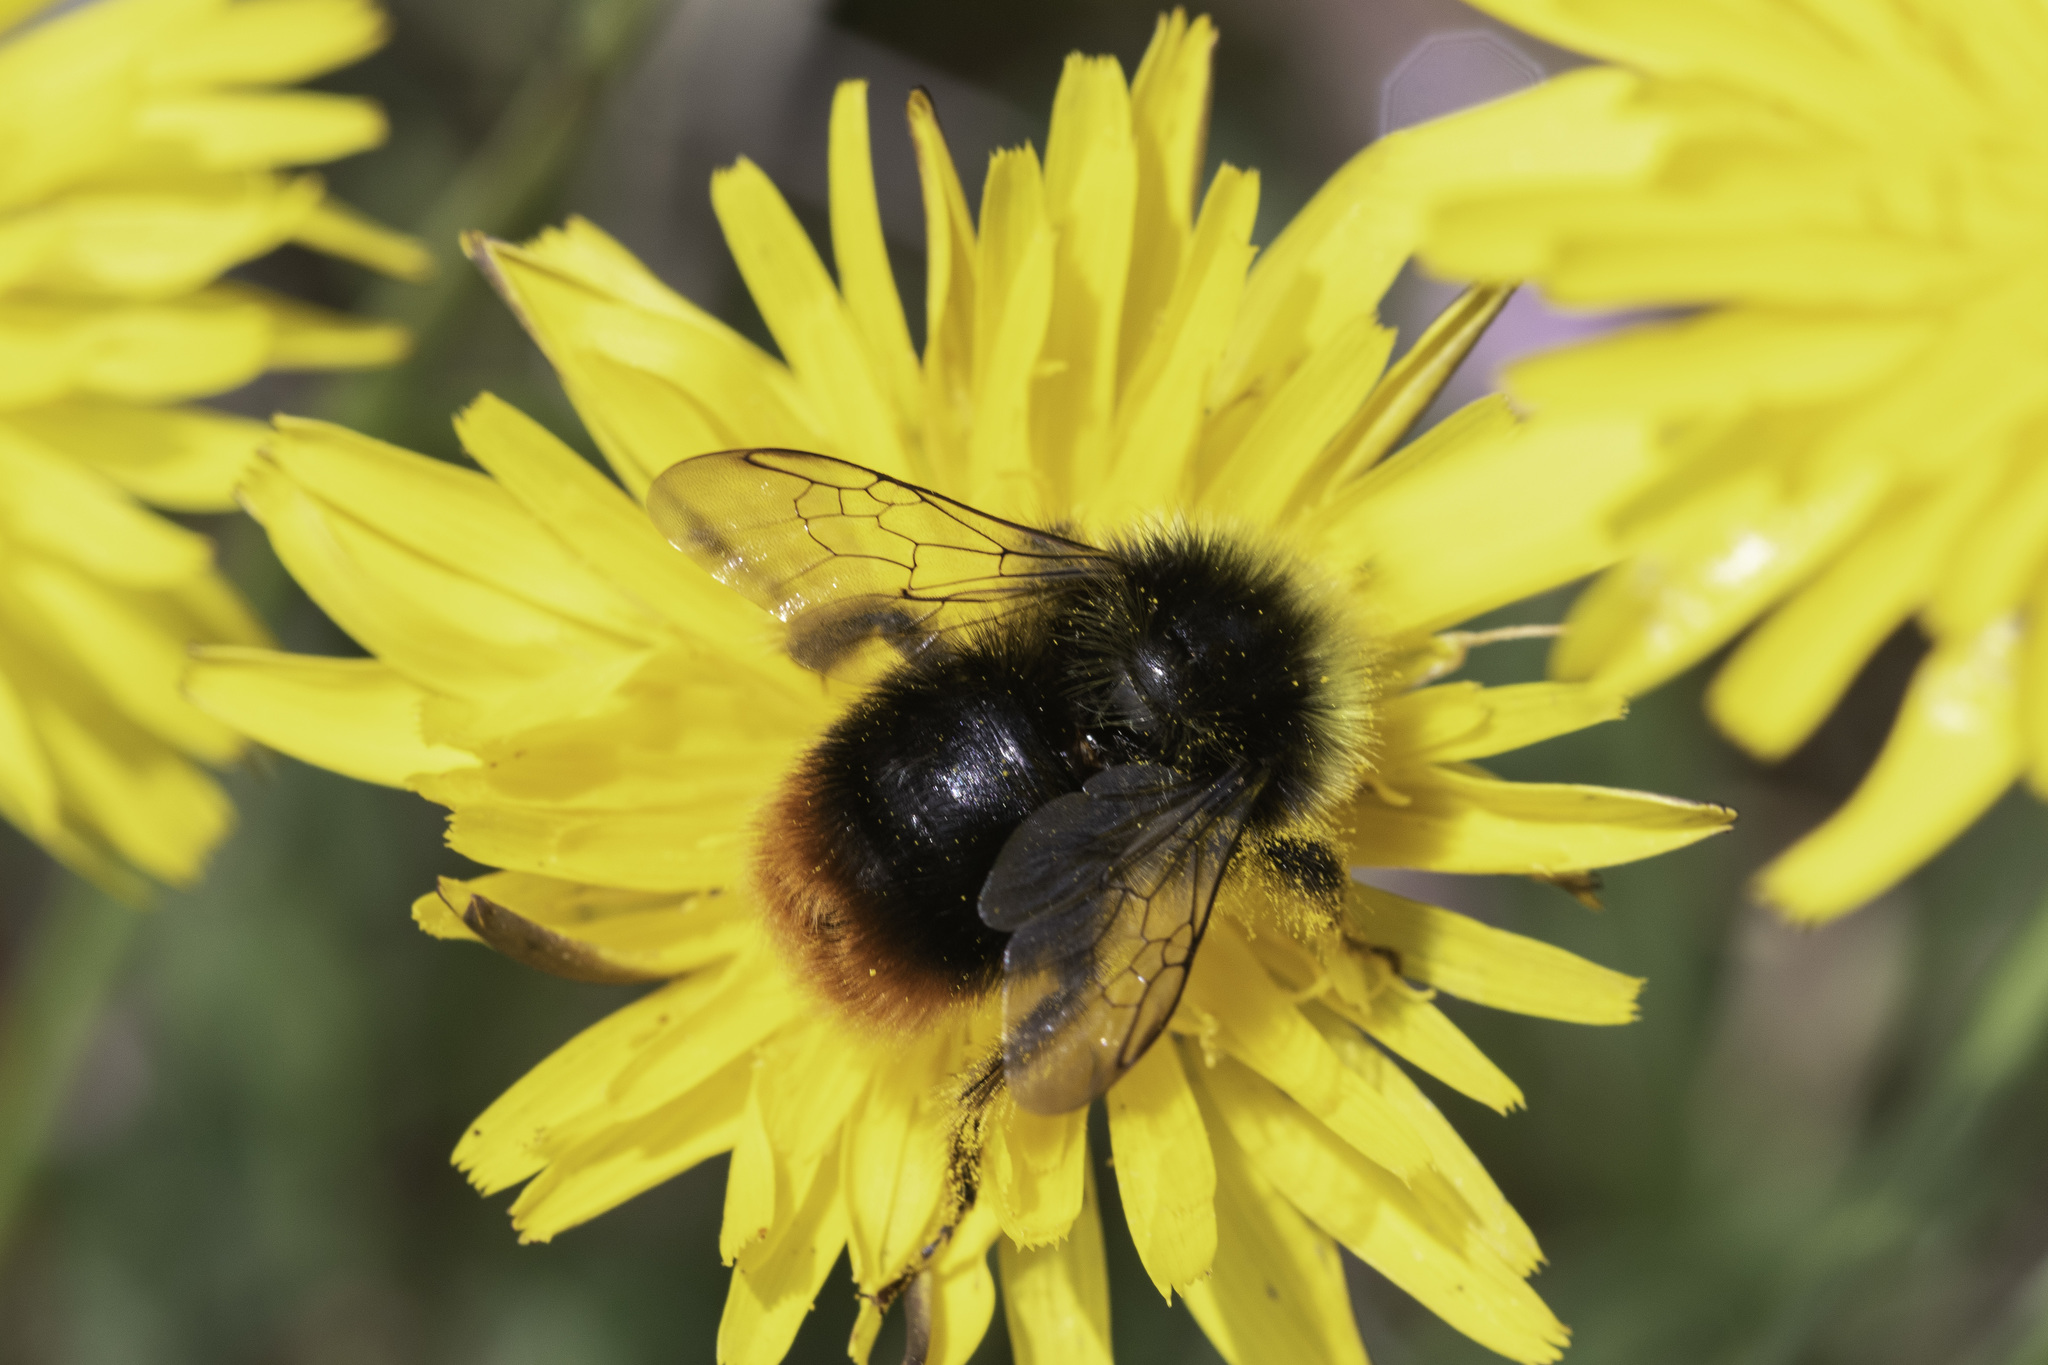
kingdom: Animalia
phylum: Arthropoda
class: Insecta
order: Hymenoptera
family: Apidae
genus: Bombus
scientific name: Bombus lapidarius
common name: Large red-tailed humble-bee
